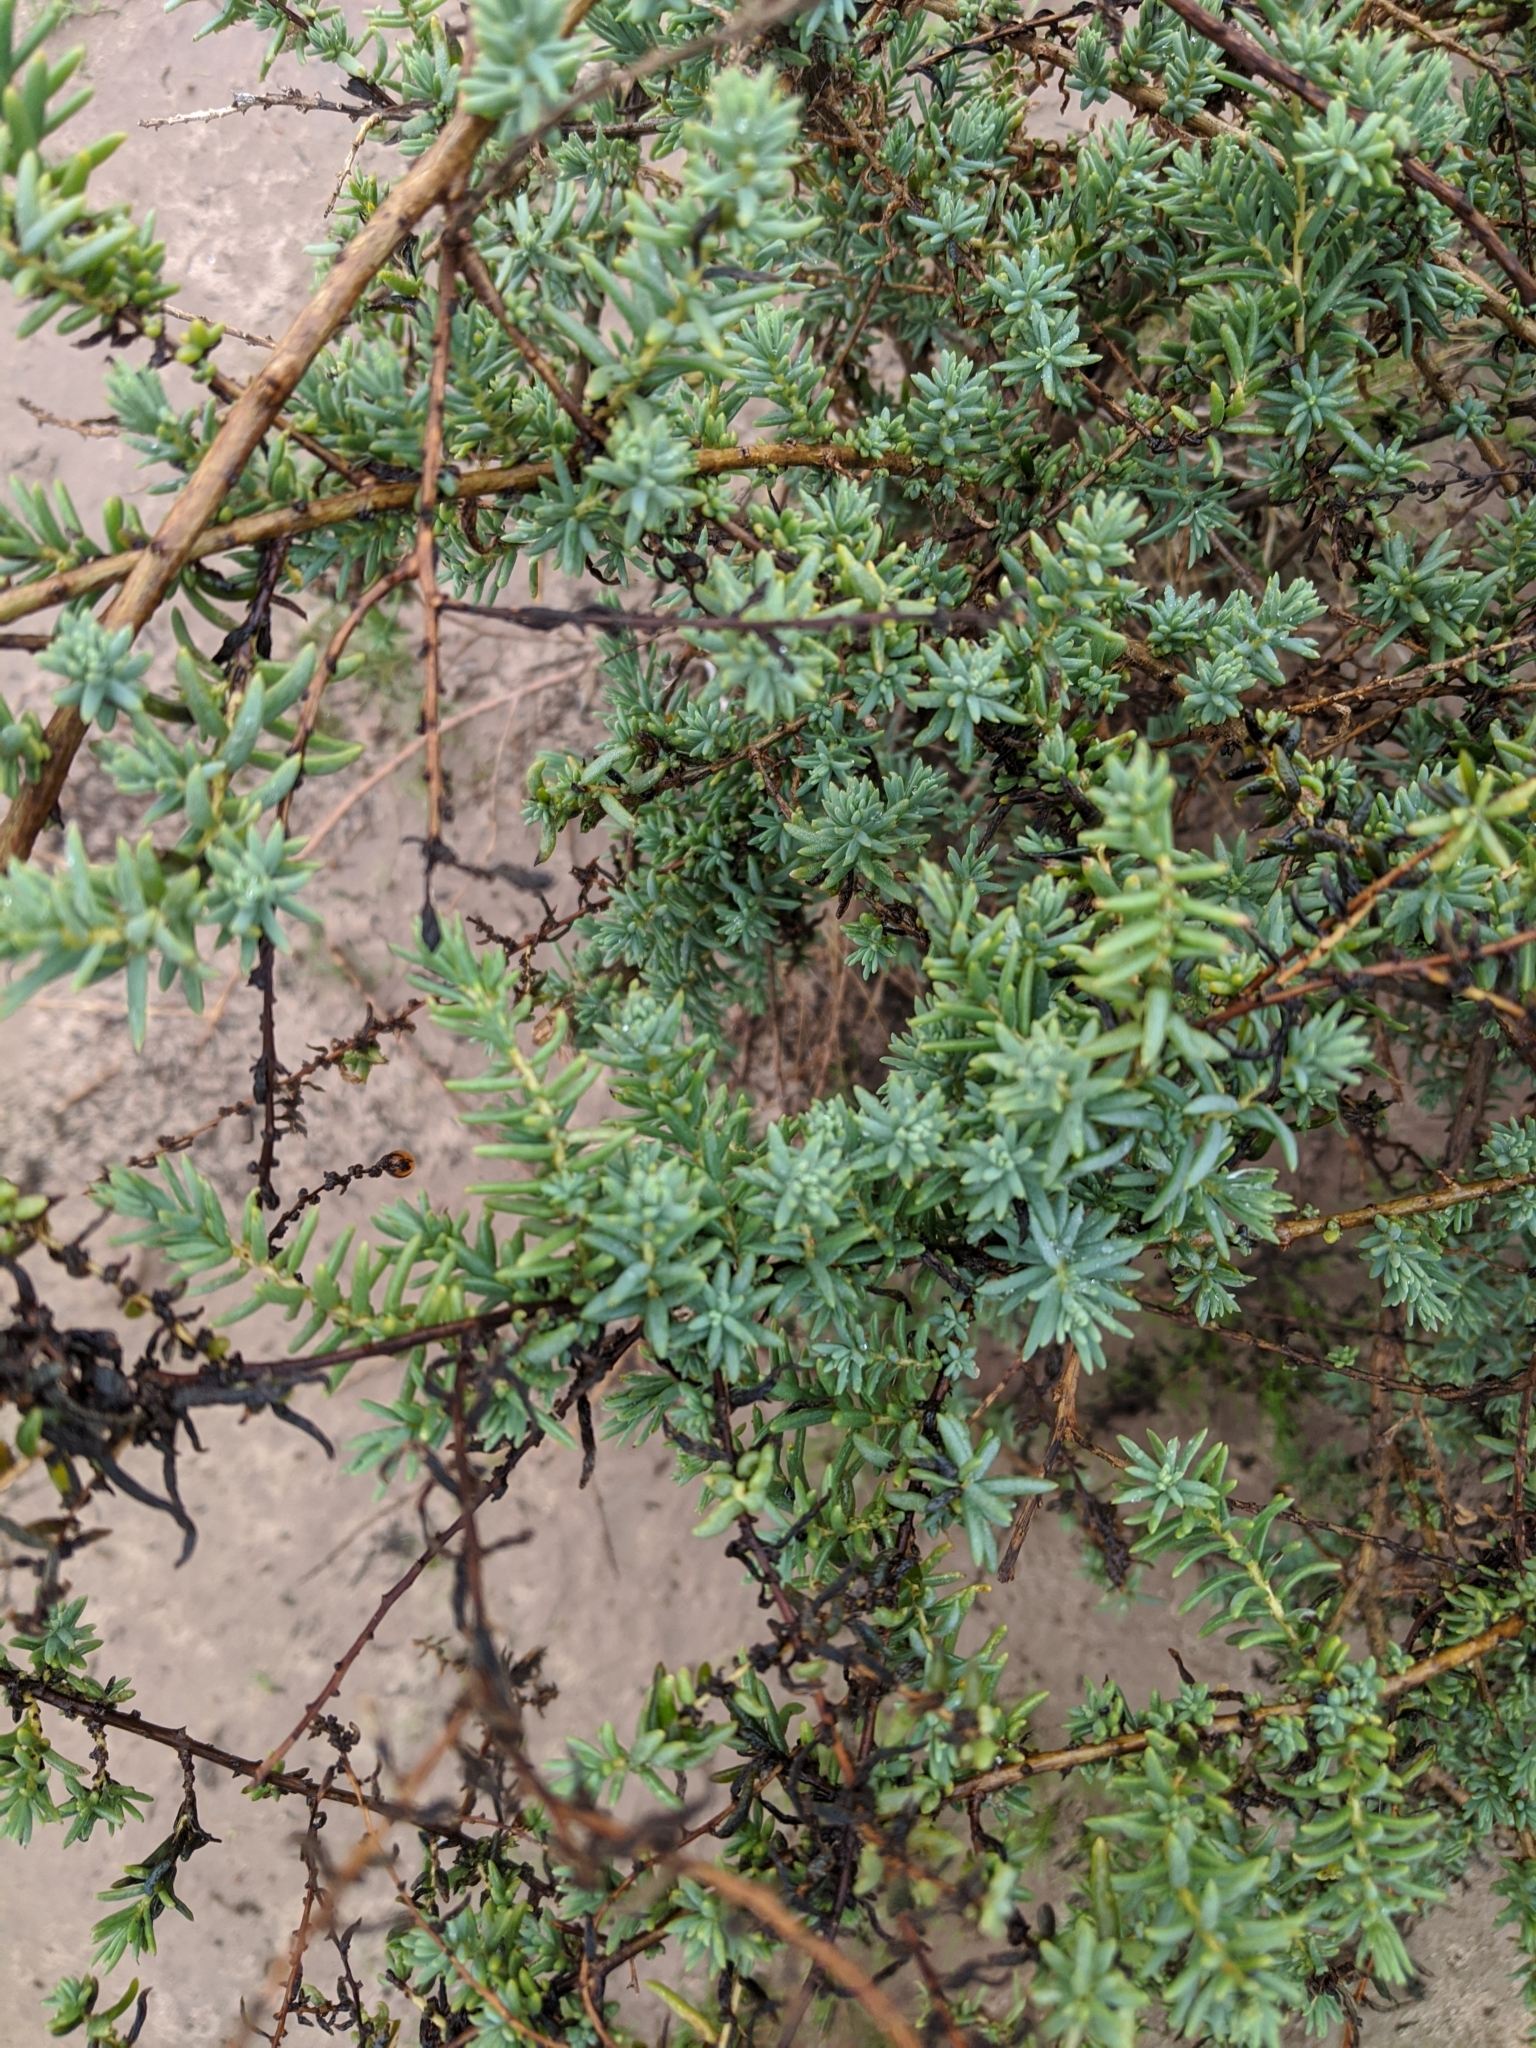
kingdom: Plantae
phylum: Tracheophyta
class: Magnoliopsida
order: Caryophyllales
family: Amaranthaceae
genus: Suaeda
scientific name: Suaeda nigra
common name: Bush seepweed
